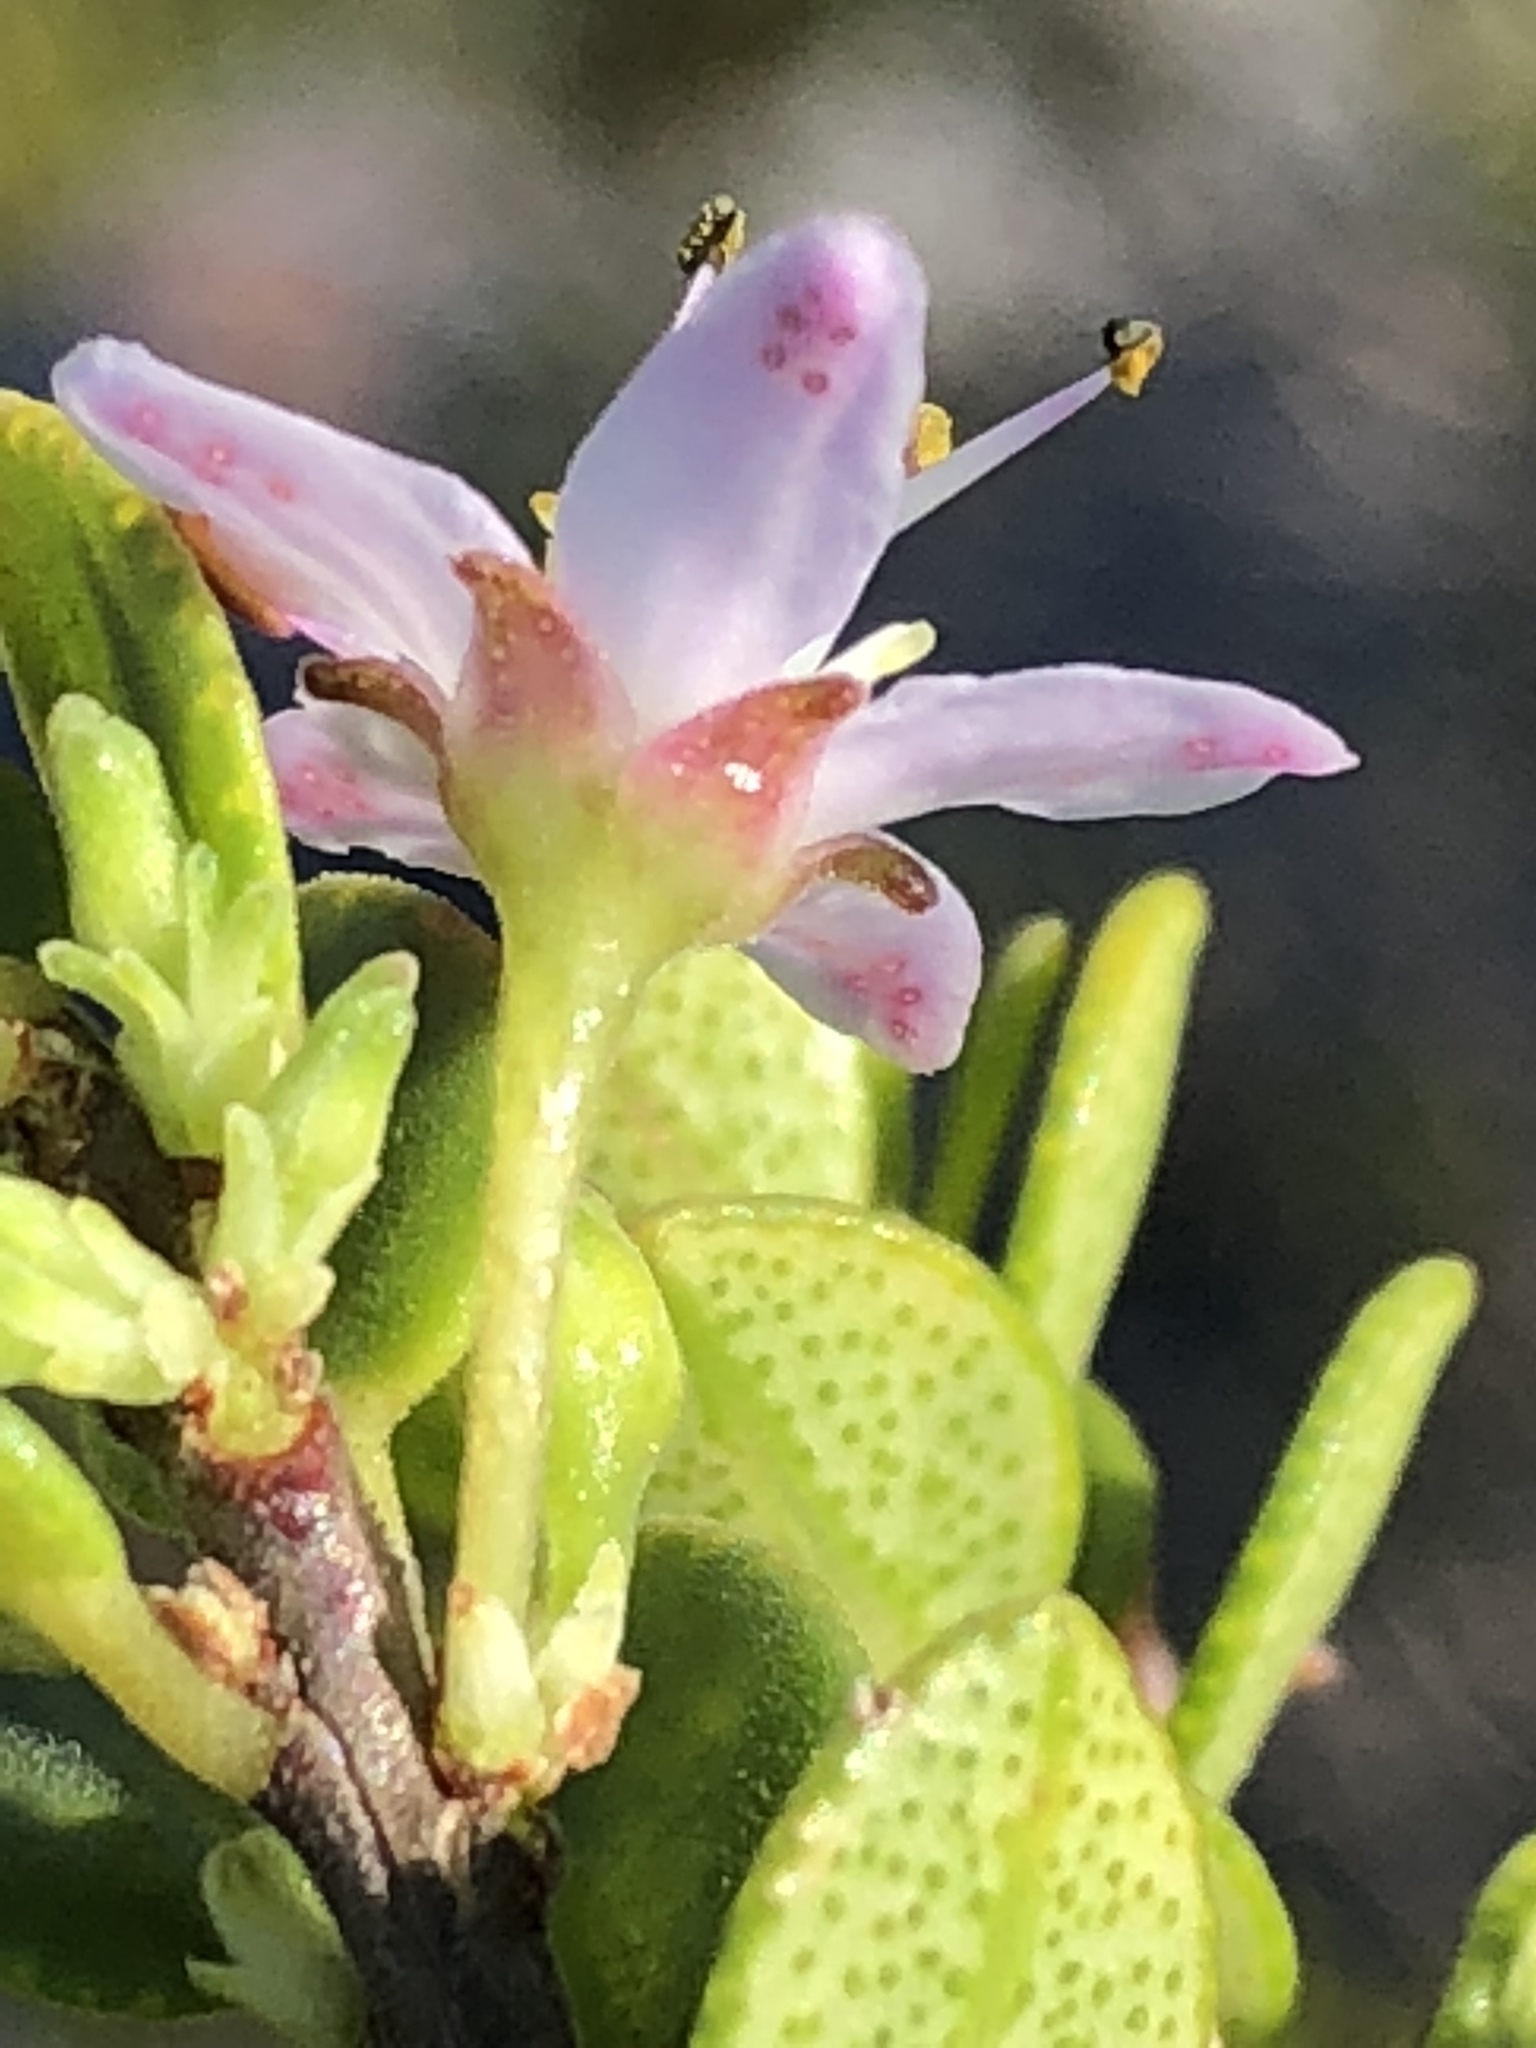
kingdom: Plantae
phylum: Tracheophyta
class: Magnoliopsida
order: Sapindales
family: Rutaceae
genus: Agathosma
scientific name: Agathosma ovata
